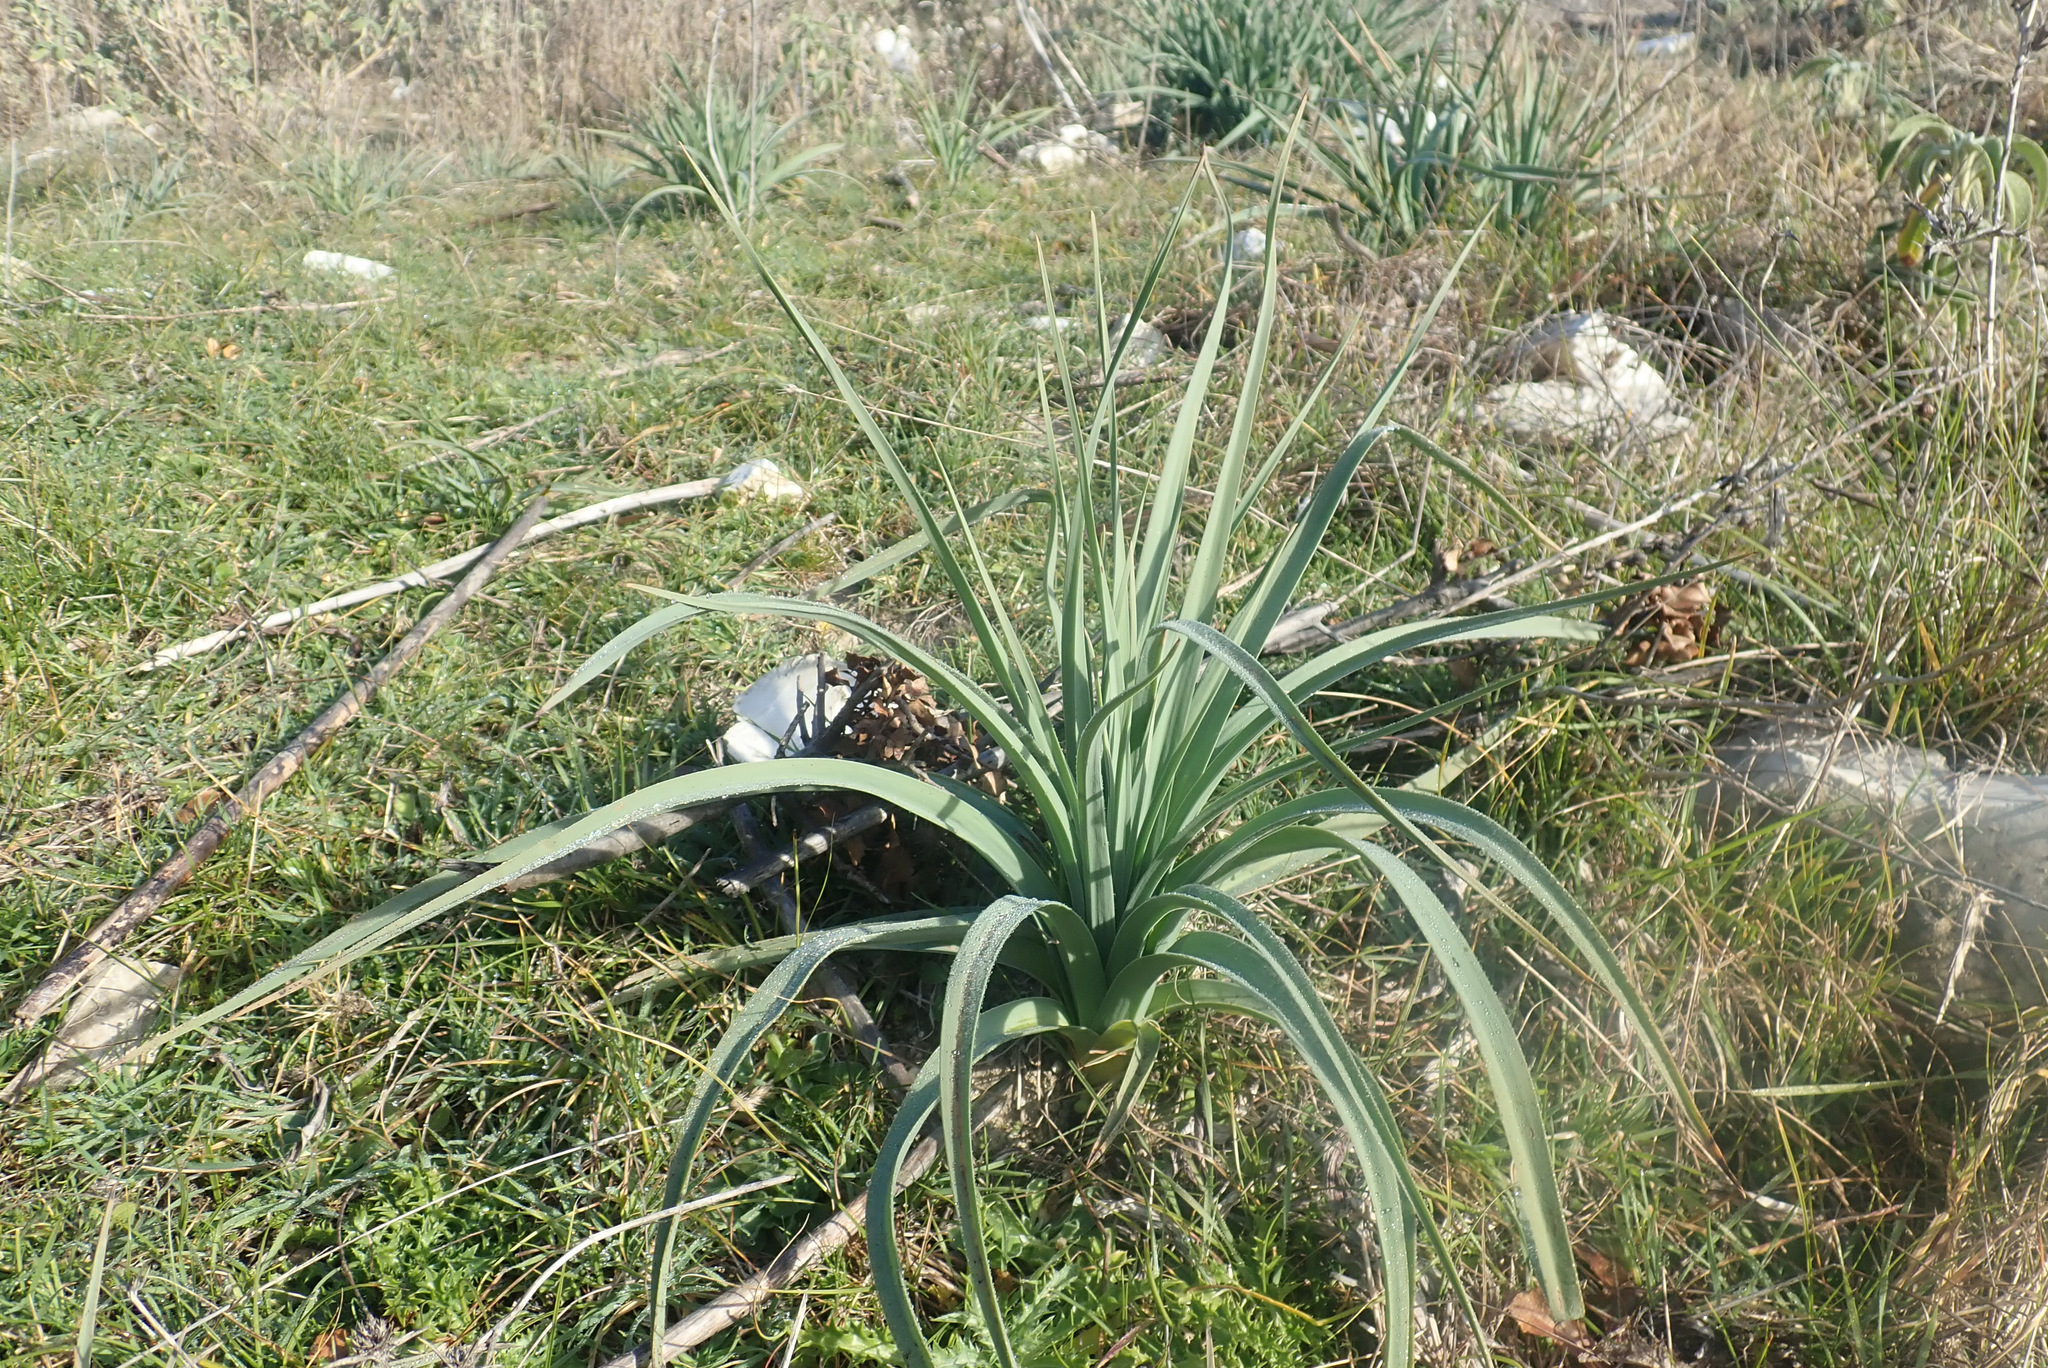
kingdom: Plantae
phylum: Tracheophyta
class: Liliopsida
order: Asparagales
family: Asphodelaceae
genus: Asphodelus
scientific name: Asphodelus ramosus
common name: Silverrod
